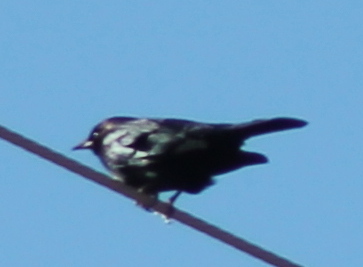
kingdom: Animalia
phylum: Chordata
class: Aves
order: Passeriformes
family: Icteridae
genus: Euphagus
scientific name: Euphagus cyanocephalus
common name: Brewer's blackbird
